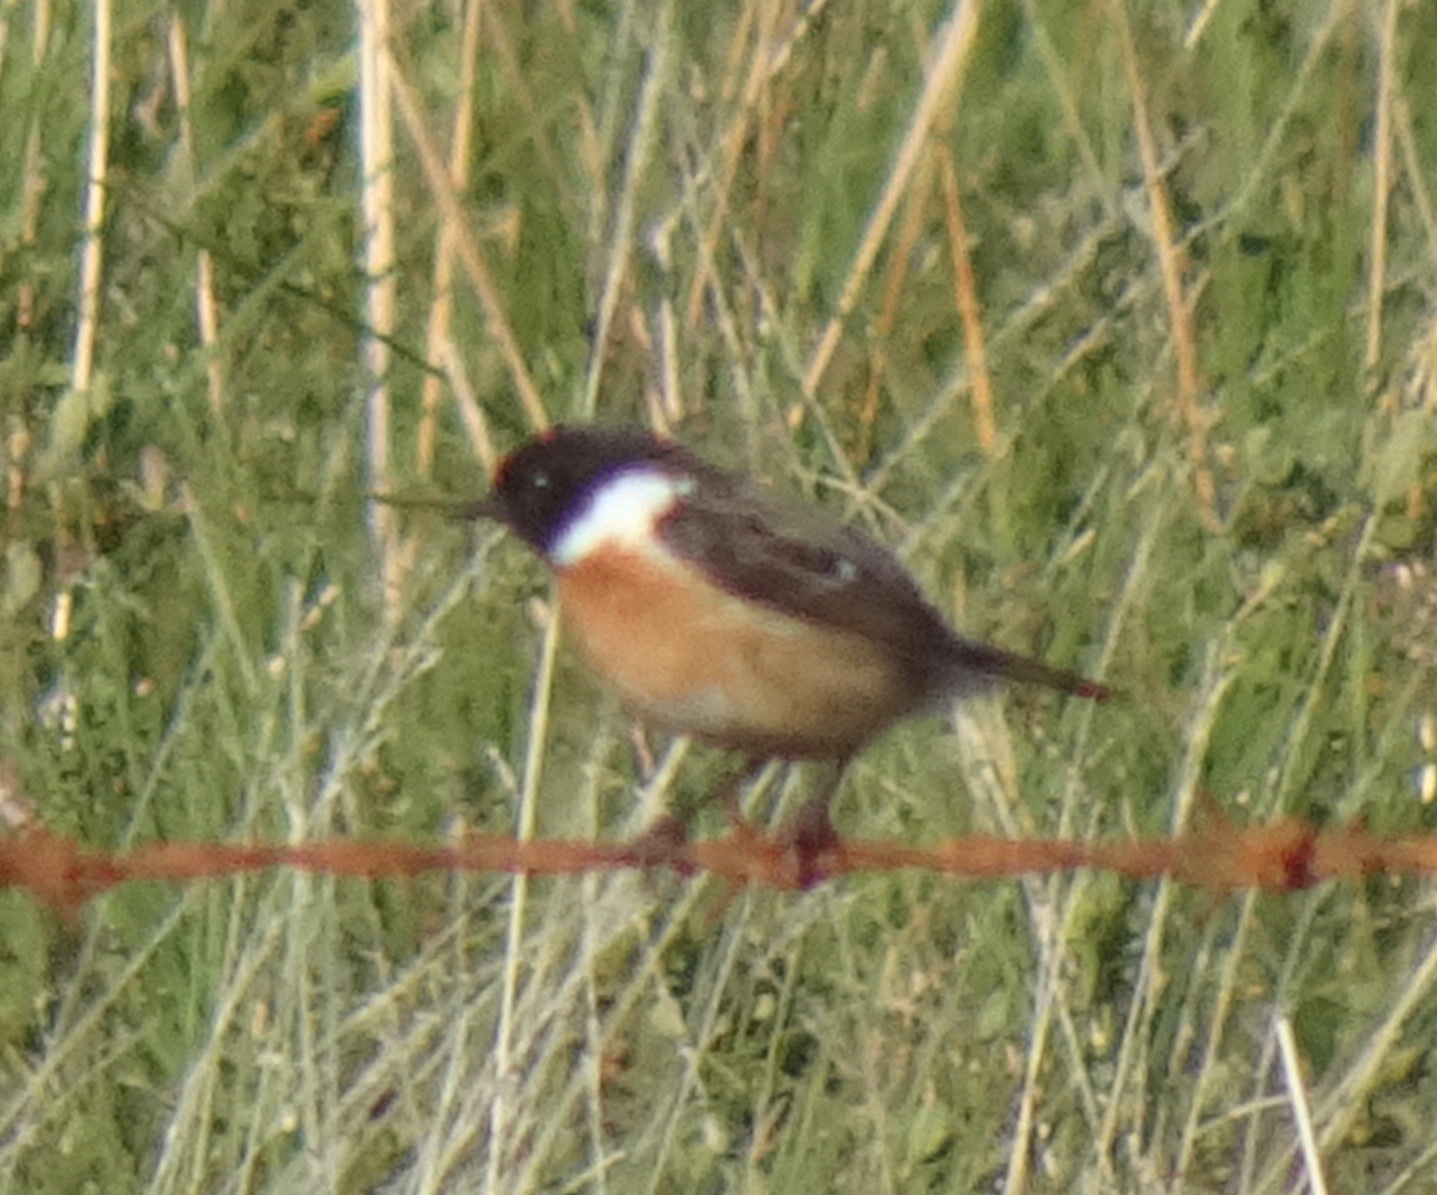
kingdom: Animalia
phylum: Chordata
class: Aves
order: Passeriformes
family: Muscicapidae
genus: Saxicola
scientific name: Saxicola rubicola
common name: European stonechat
